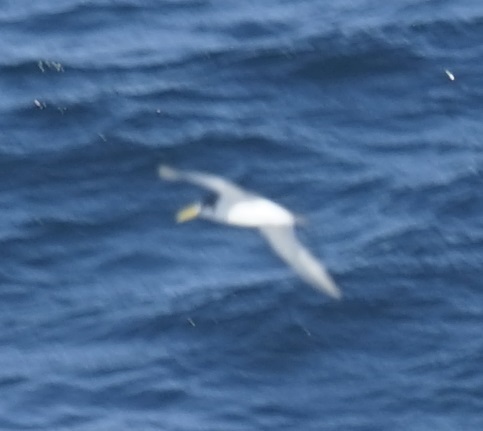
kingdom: Animalia
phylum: Chordata
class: Aves
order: Charadriiformes
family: Laridae
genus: Thalasseus
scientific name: Thalasseus bergii
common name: Greater crested tern
